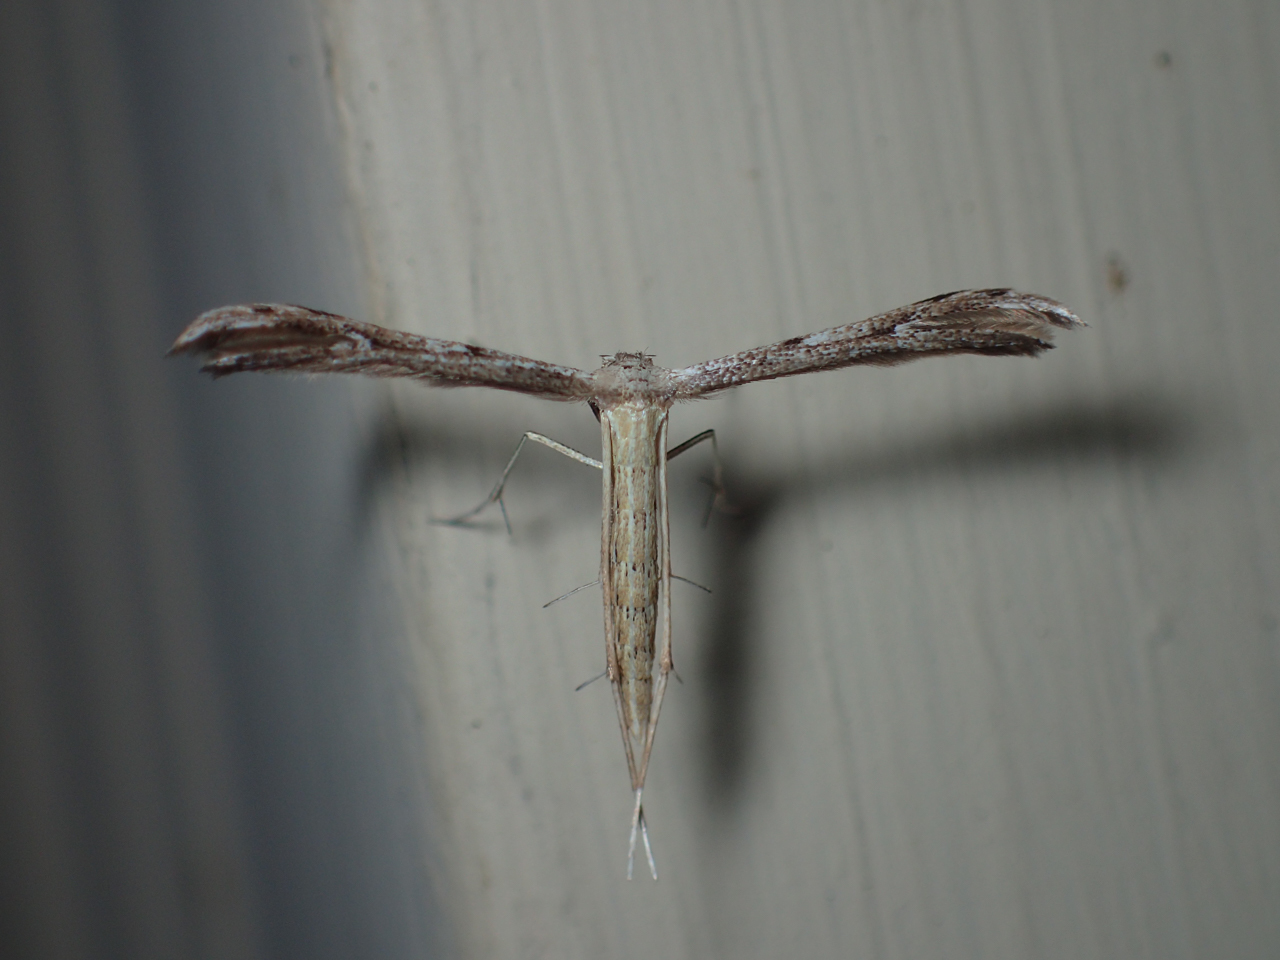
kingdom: Animalia
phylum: Arthropoda
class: Insecta
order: Lepidoptera
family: Pterophoridae
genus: Pselnophorus
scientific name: Pselnophorus belfragei
